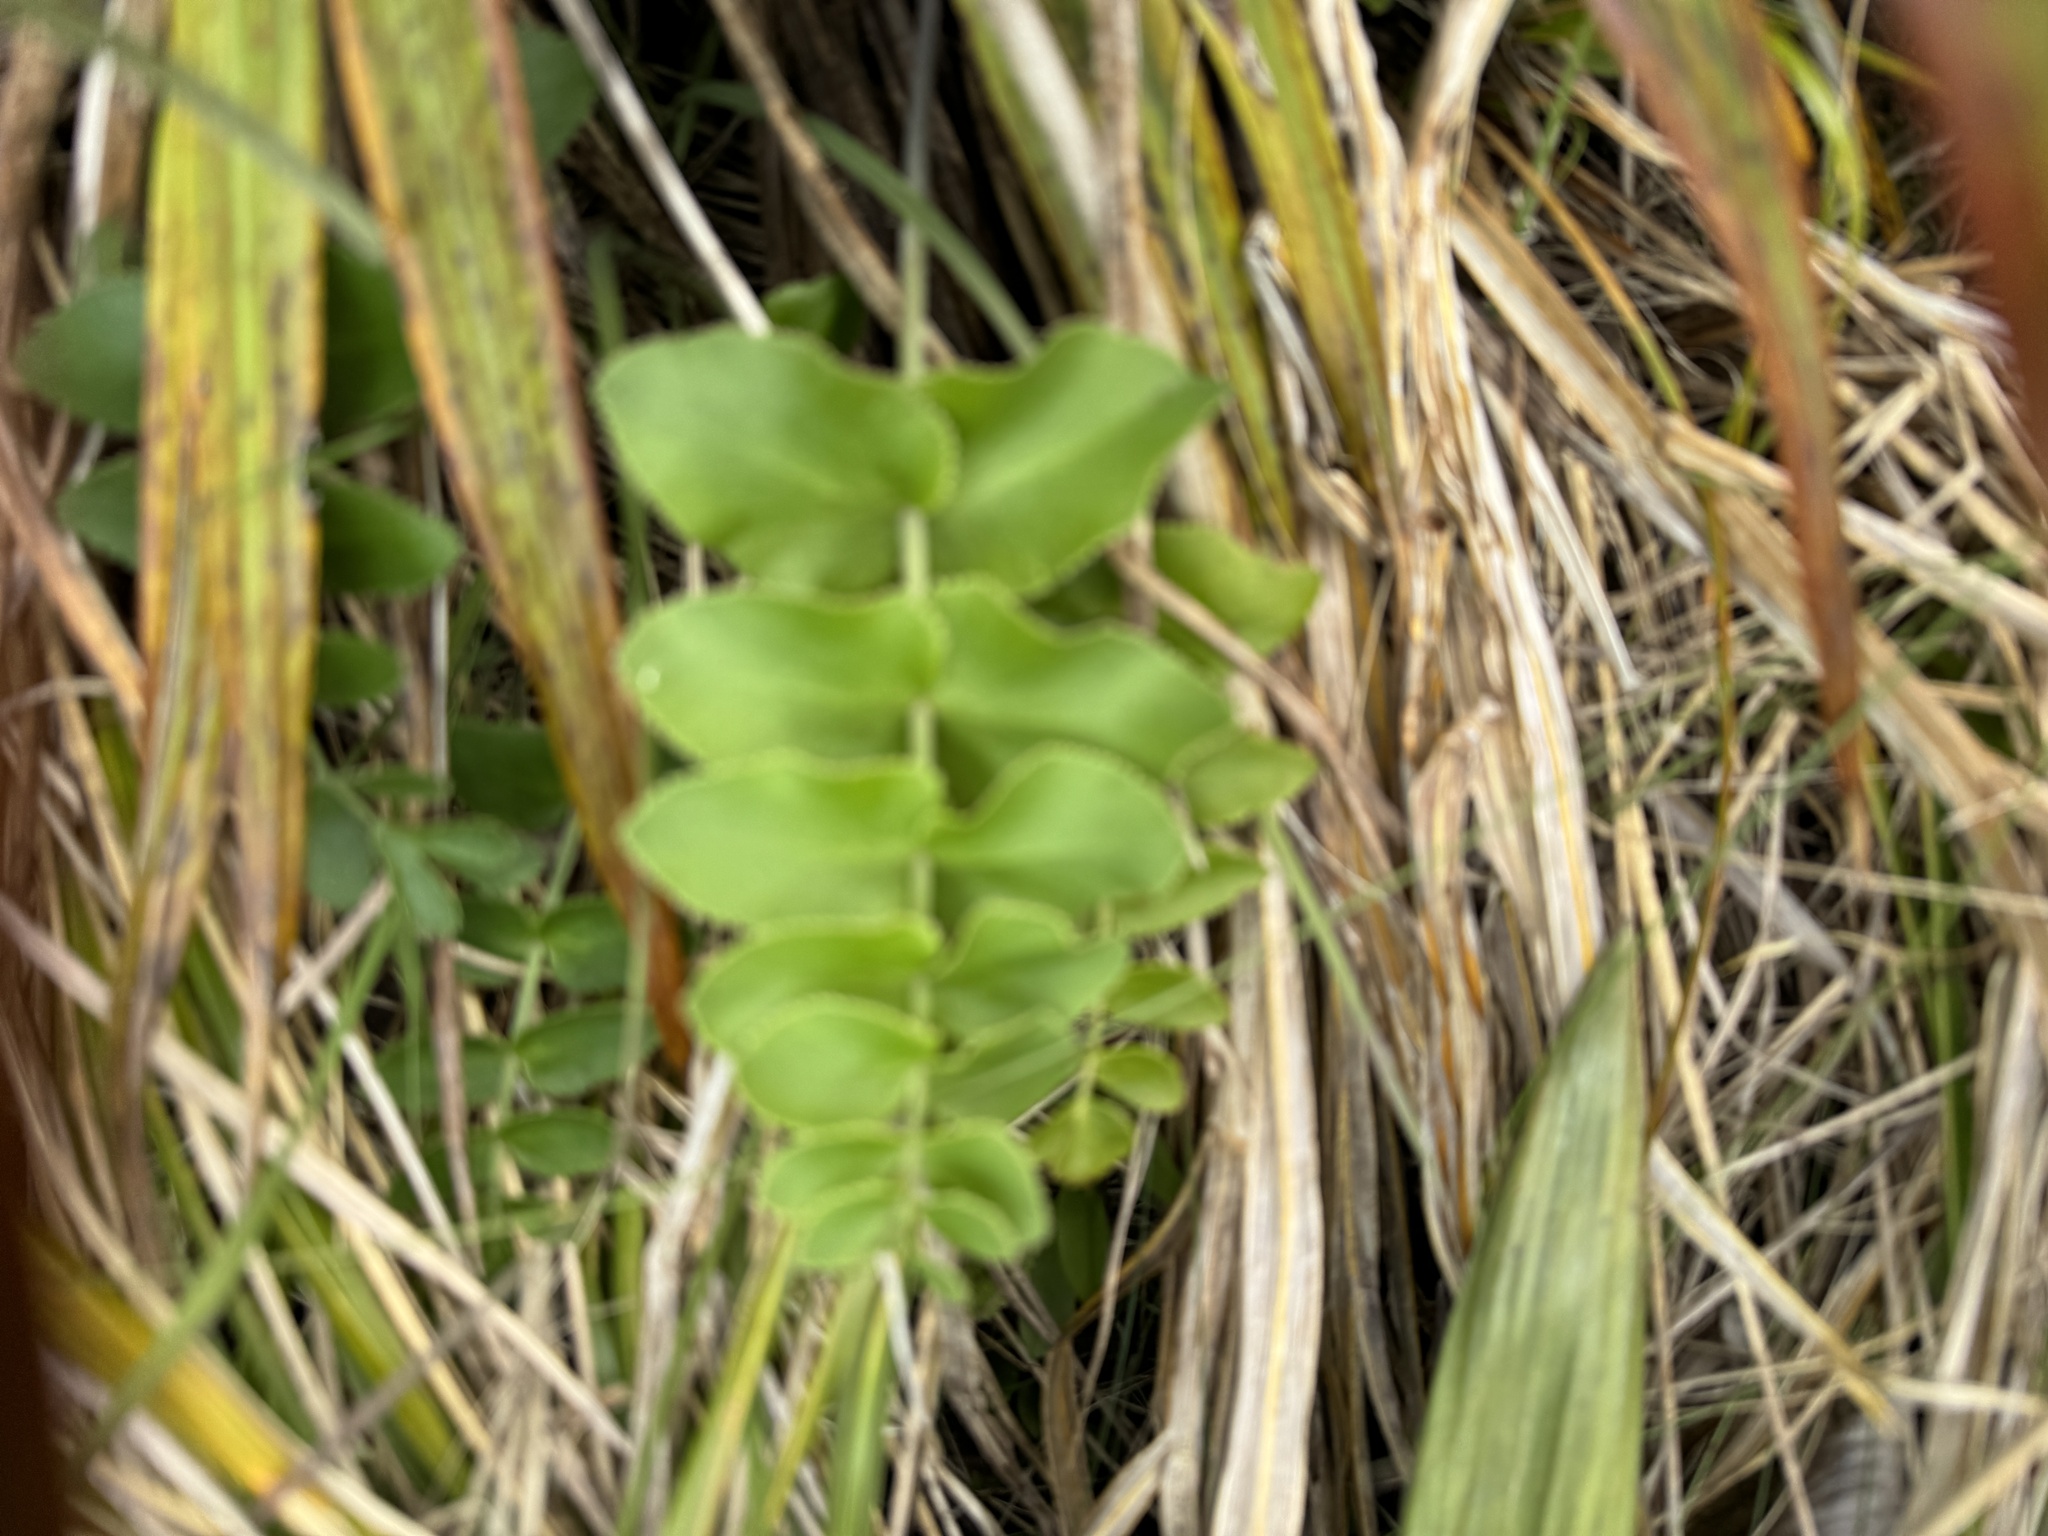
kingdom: Plantae
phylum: Tracheophyta
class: Magnoliopsida
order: Apiales
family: Apiaceae
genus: Gingidia
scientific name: Gingidia montana
